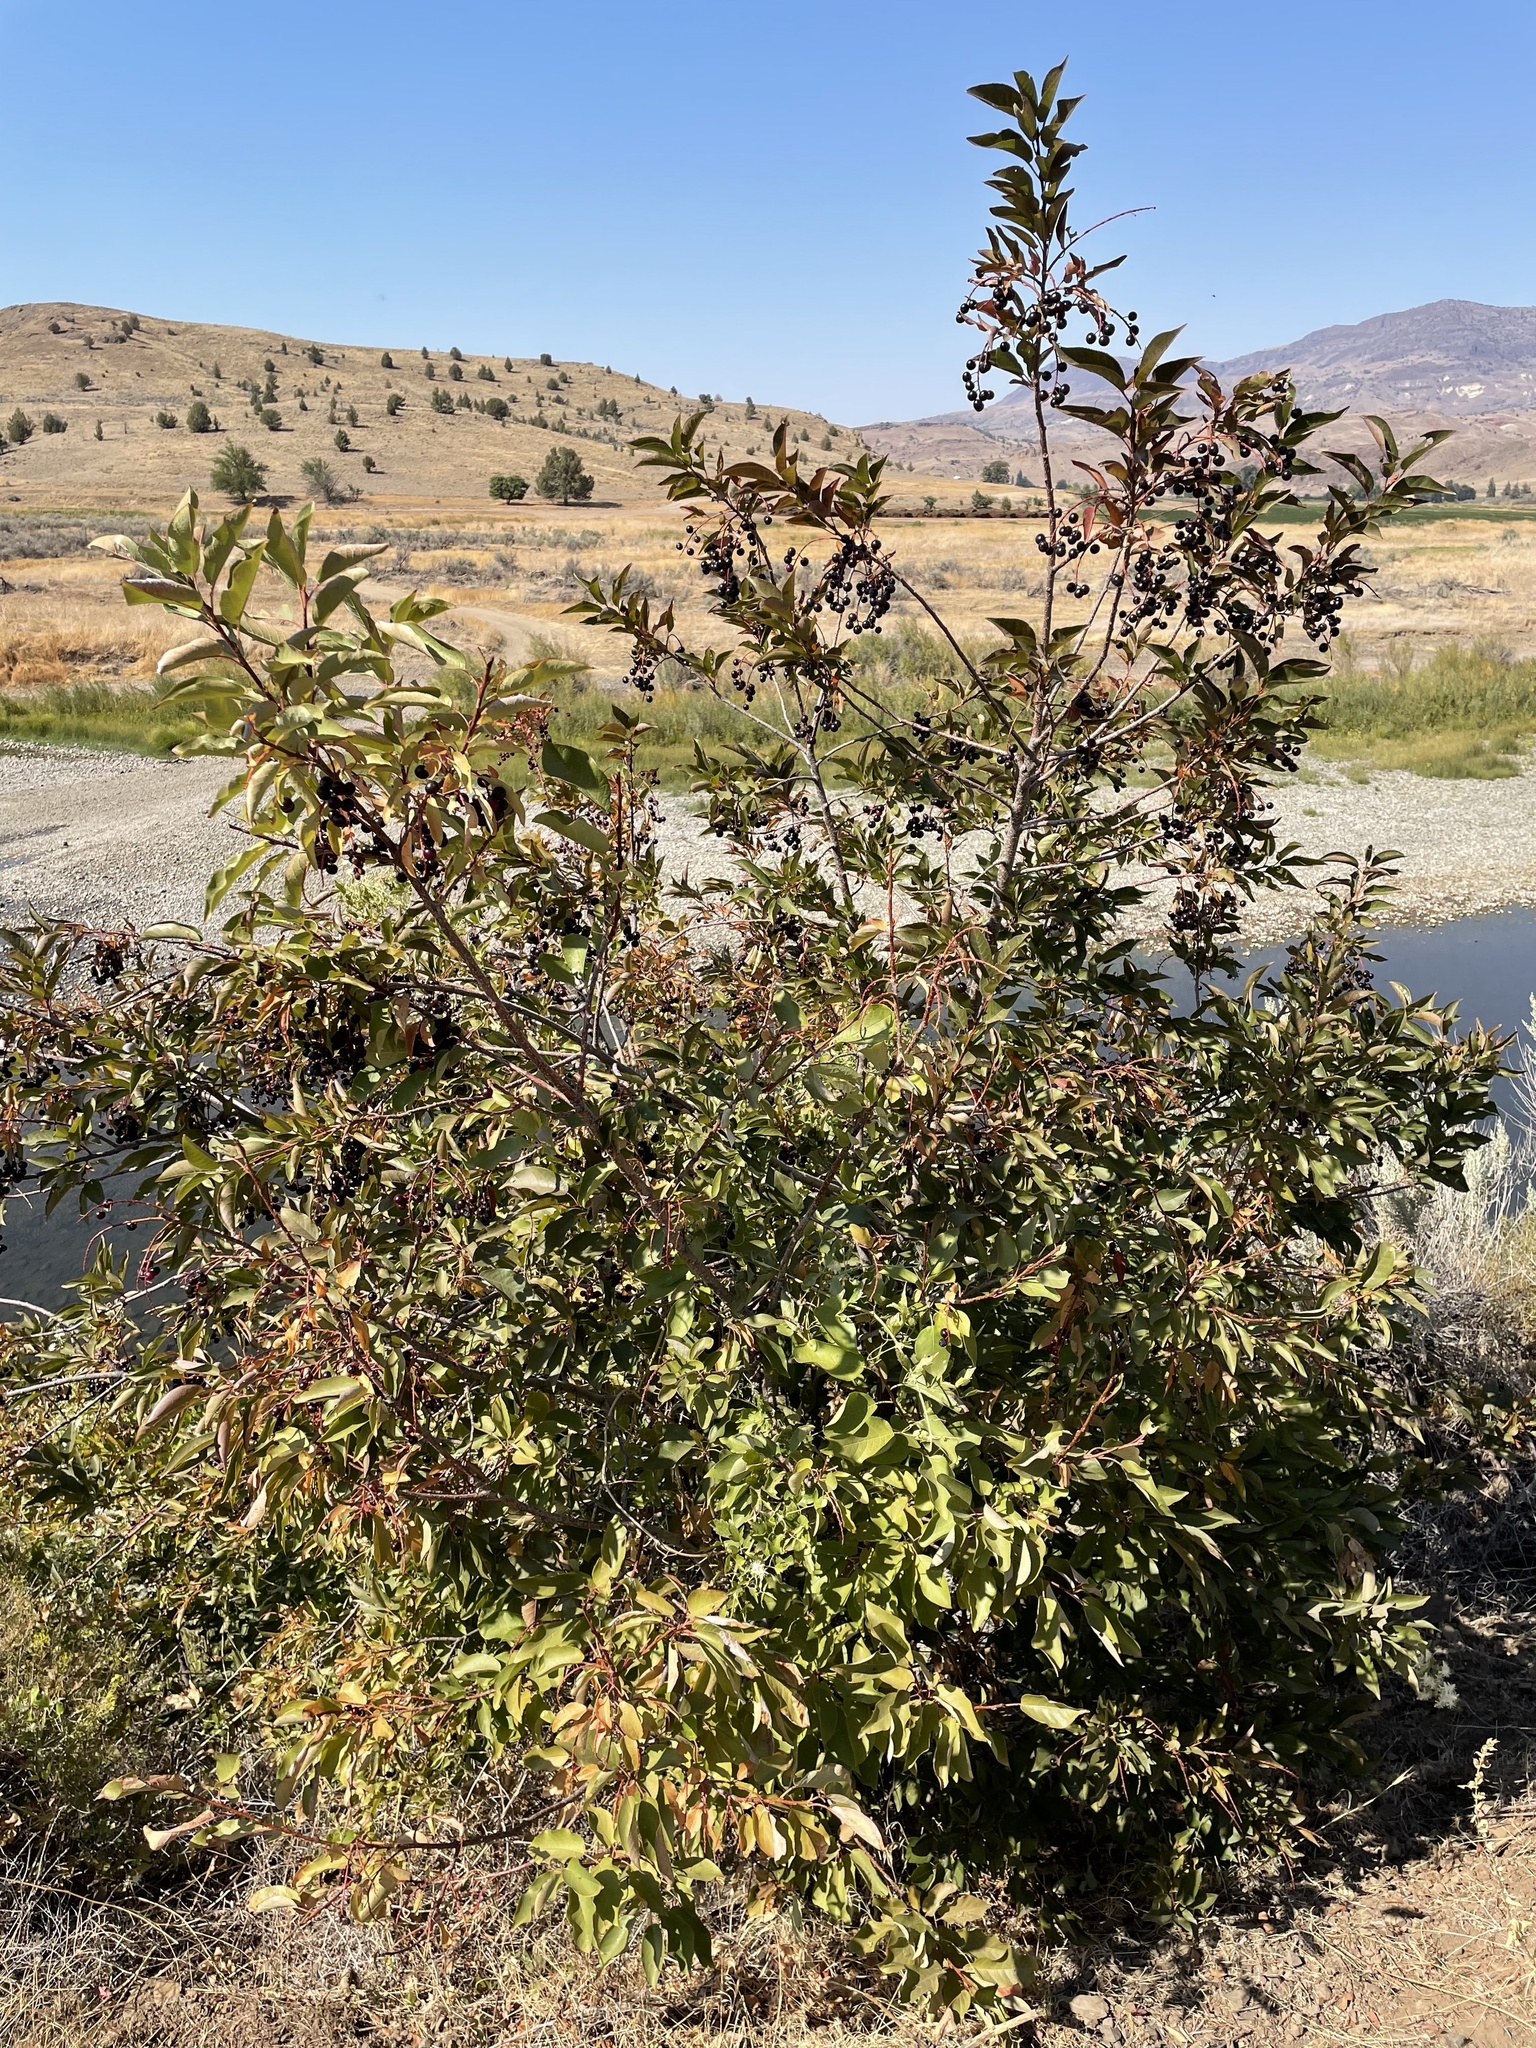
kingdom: Plantae
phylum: Tracheophyta
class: Magnoliopsida
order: Rosales
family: Rosaceae
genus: Prunus
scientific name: Prunus virginiana
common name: Chokecherry
